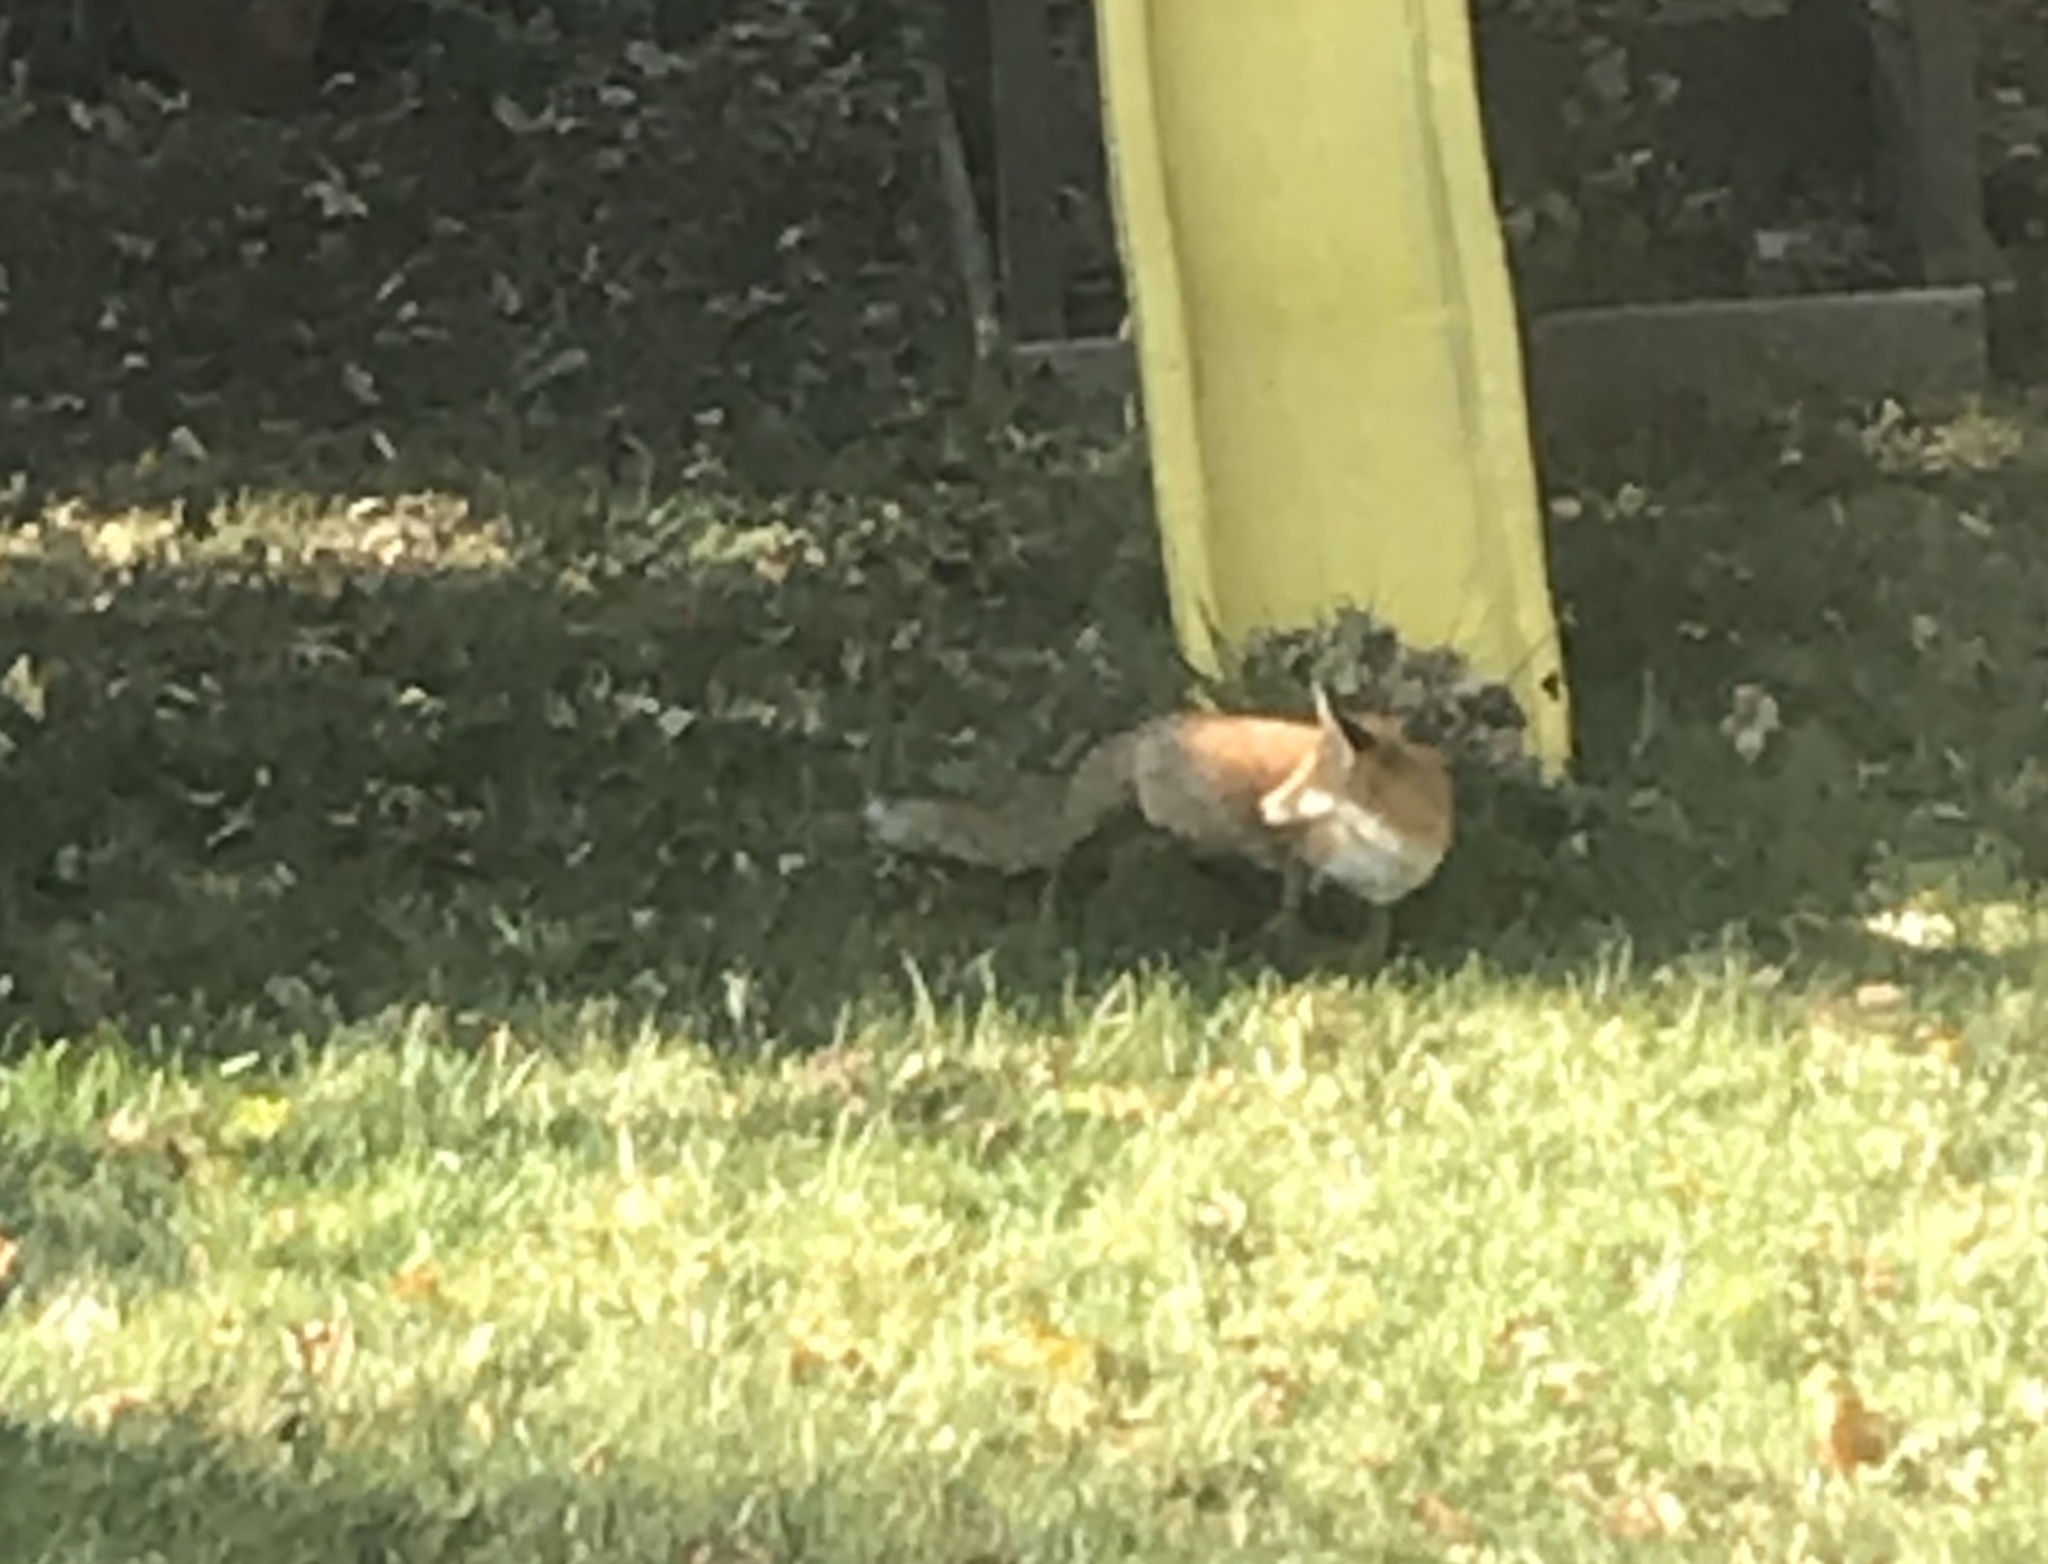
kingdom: Animalia
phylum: Chordata
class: Mammalia
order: Carnivora
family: Canidae
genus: Vulpes
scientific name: Vulpes vulpes
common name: Red fox
